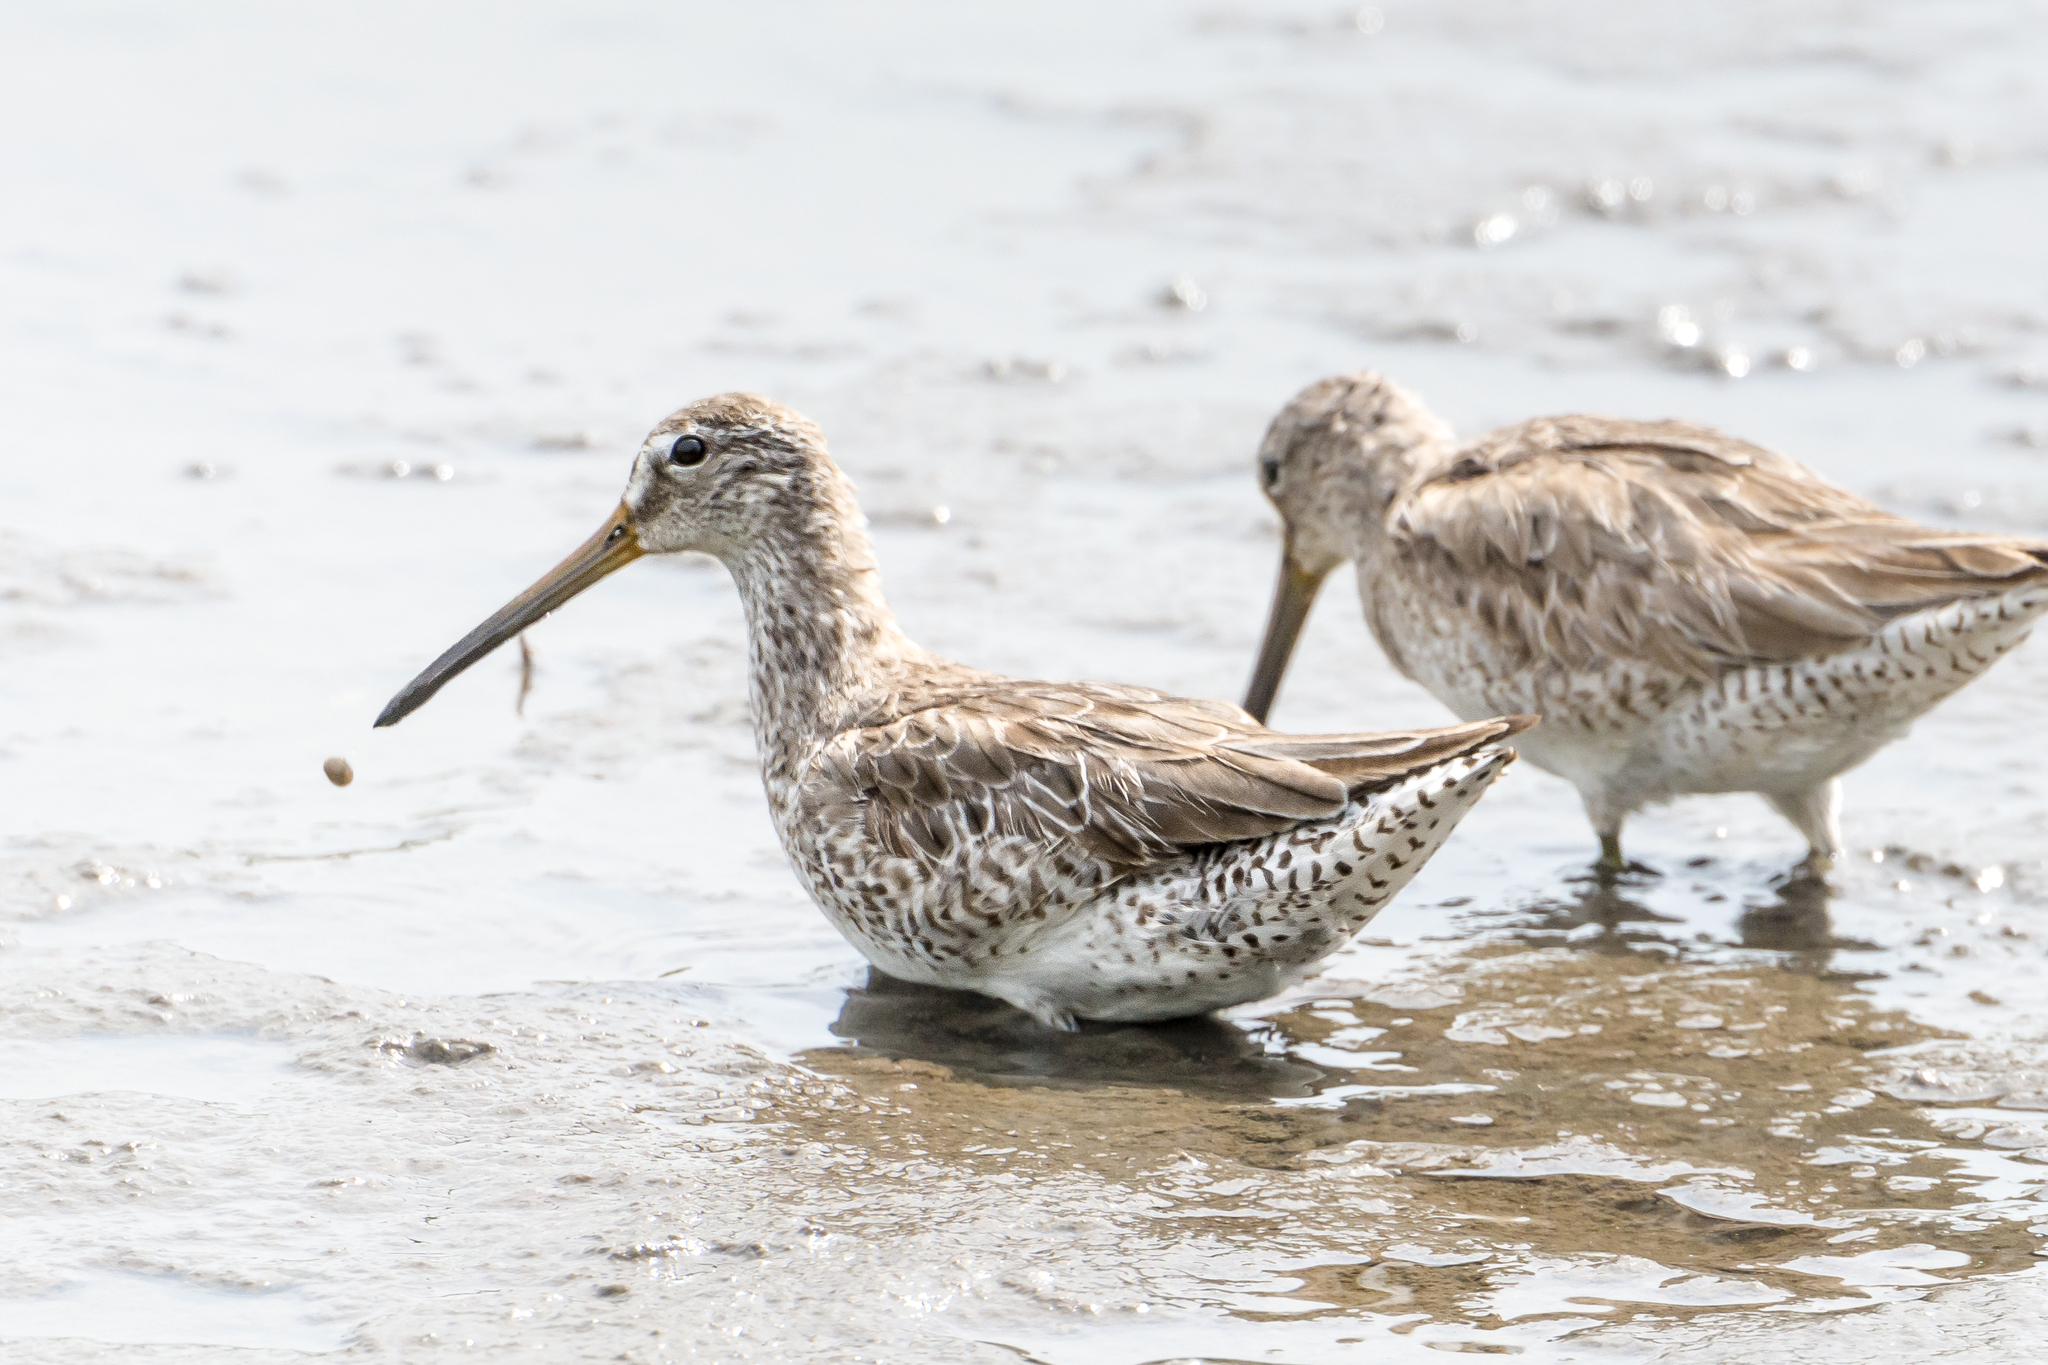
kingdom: Animalia
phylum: Chordata
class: Aves
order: Charadriiformes
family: Scolopacidae
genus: Limnodromus
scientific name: Limnodromus griseus
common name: Short-billed dowitcher
